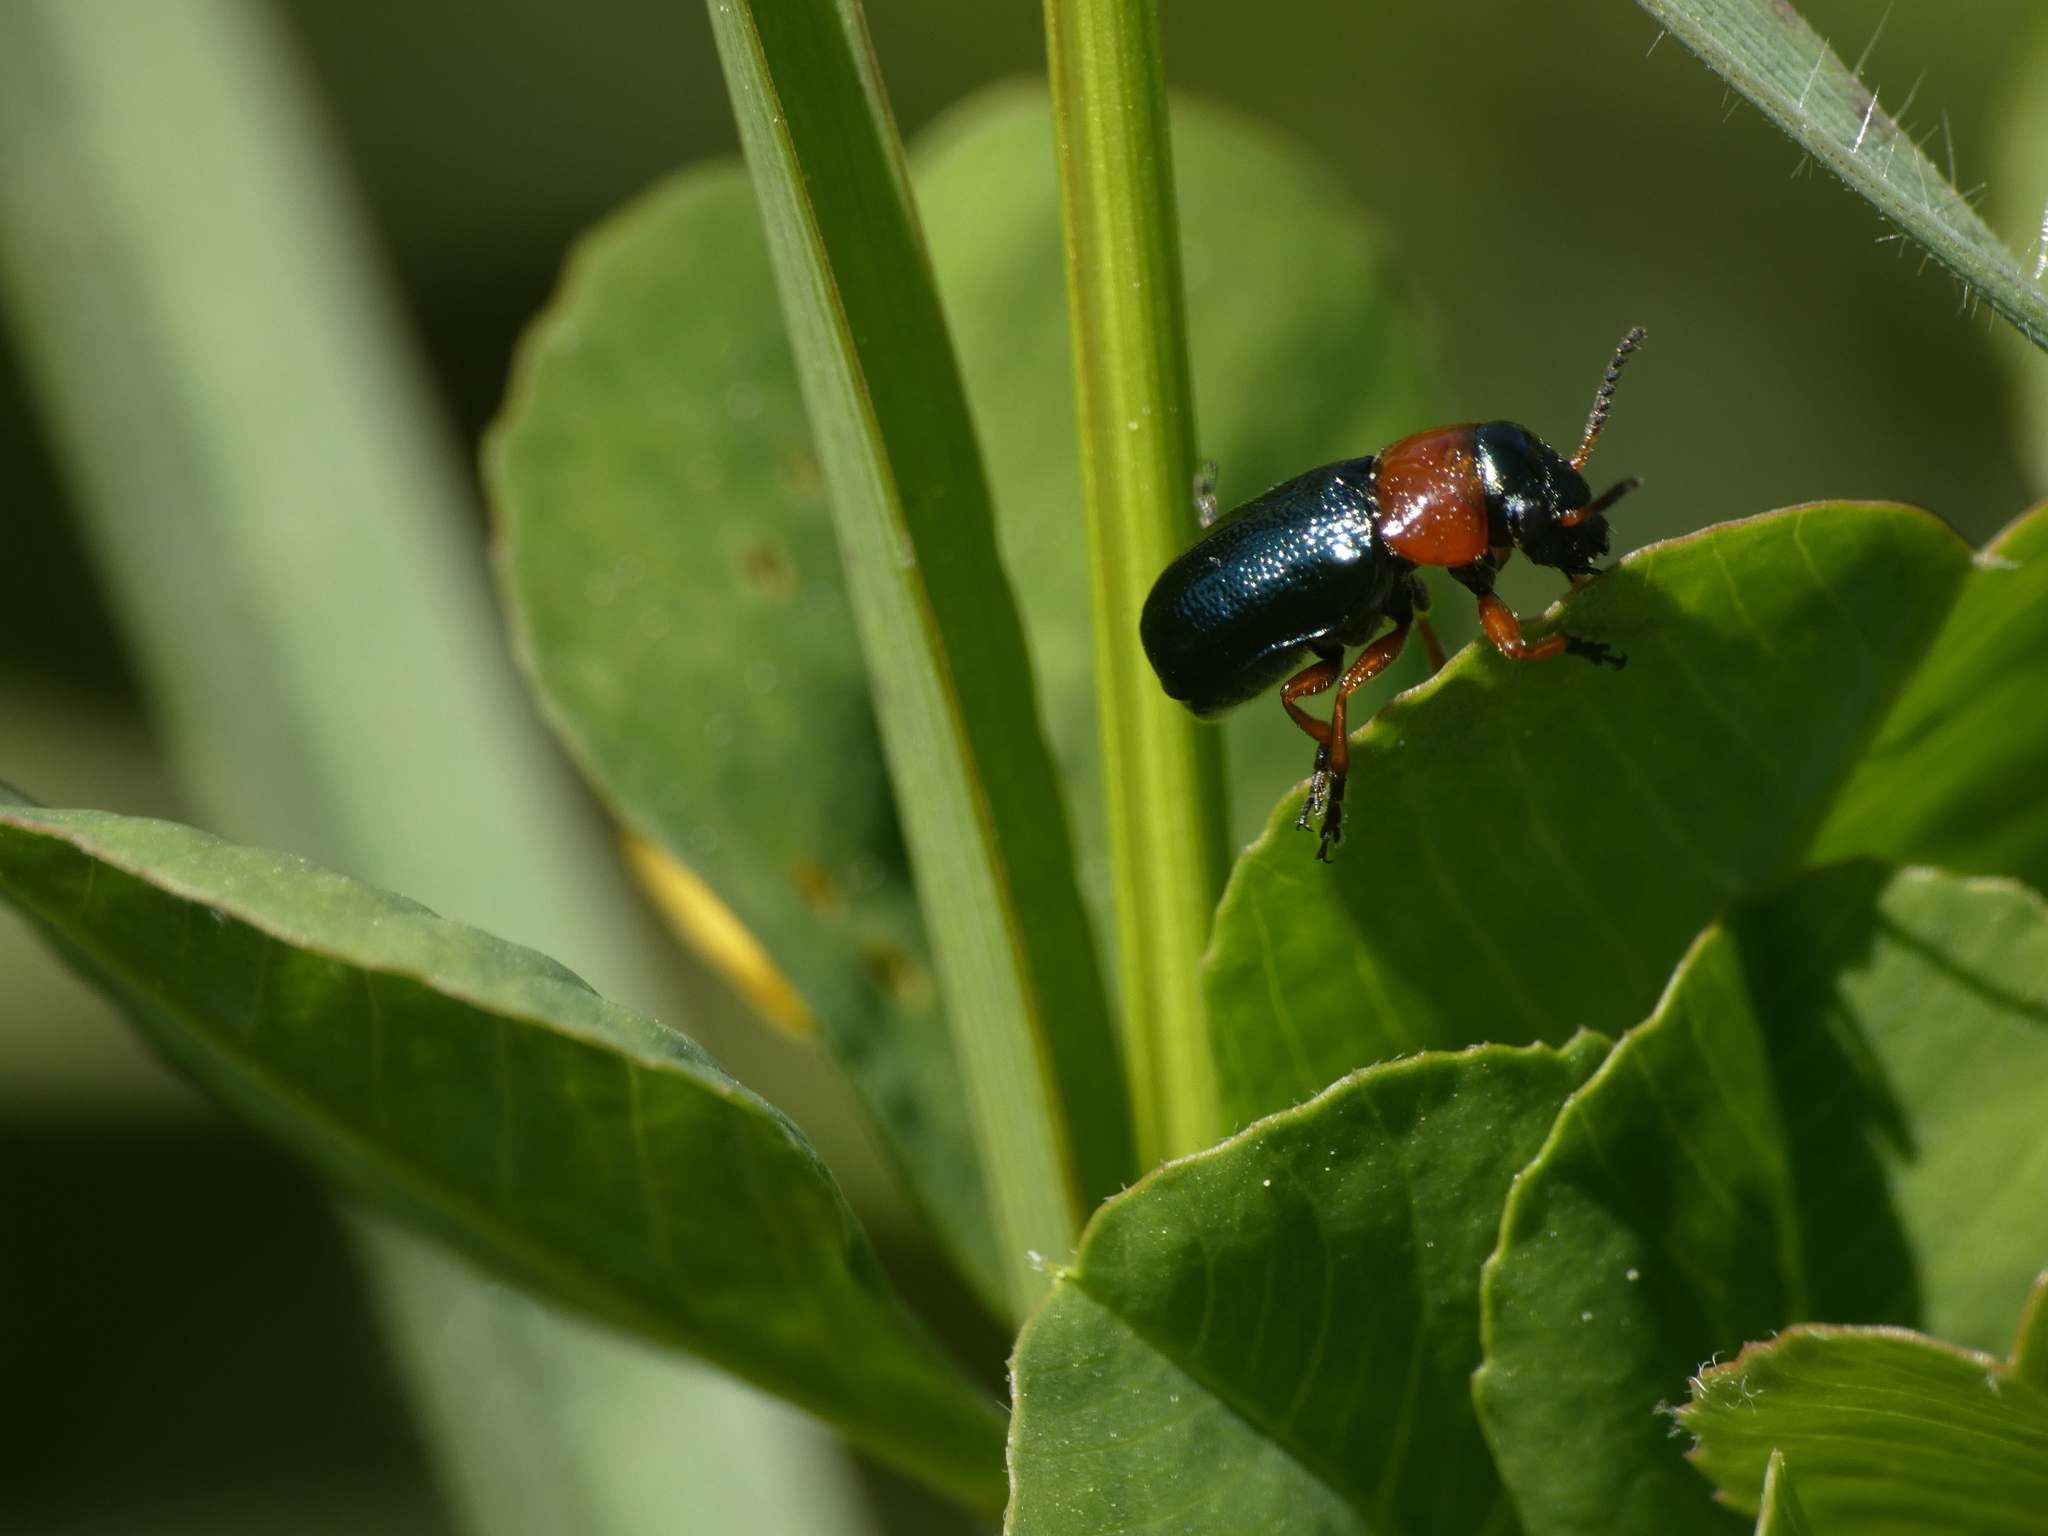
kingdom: Animalia
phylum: Arthropoda
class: Insecta
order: Coleoptera
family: Chrysomelidae
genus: Chilotomina
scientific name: Chilotomina nigritarsis
